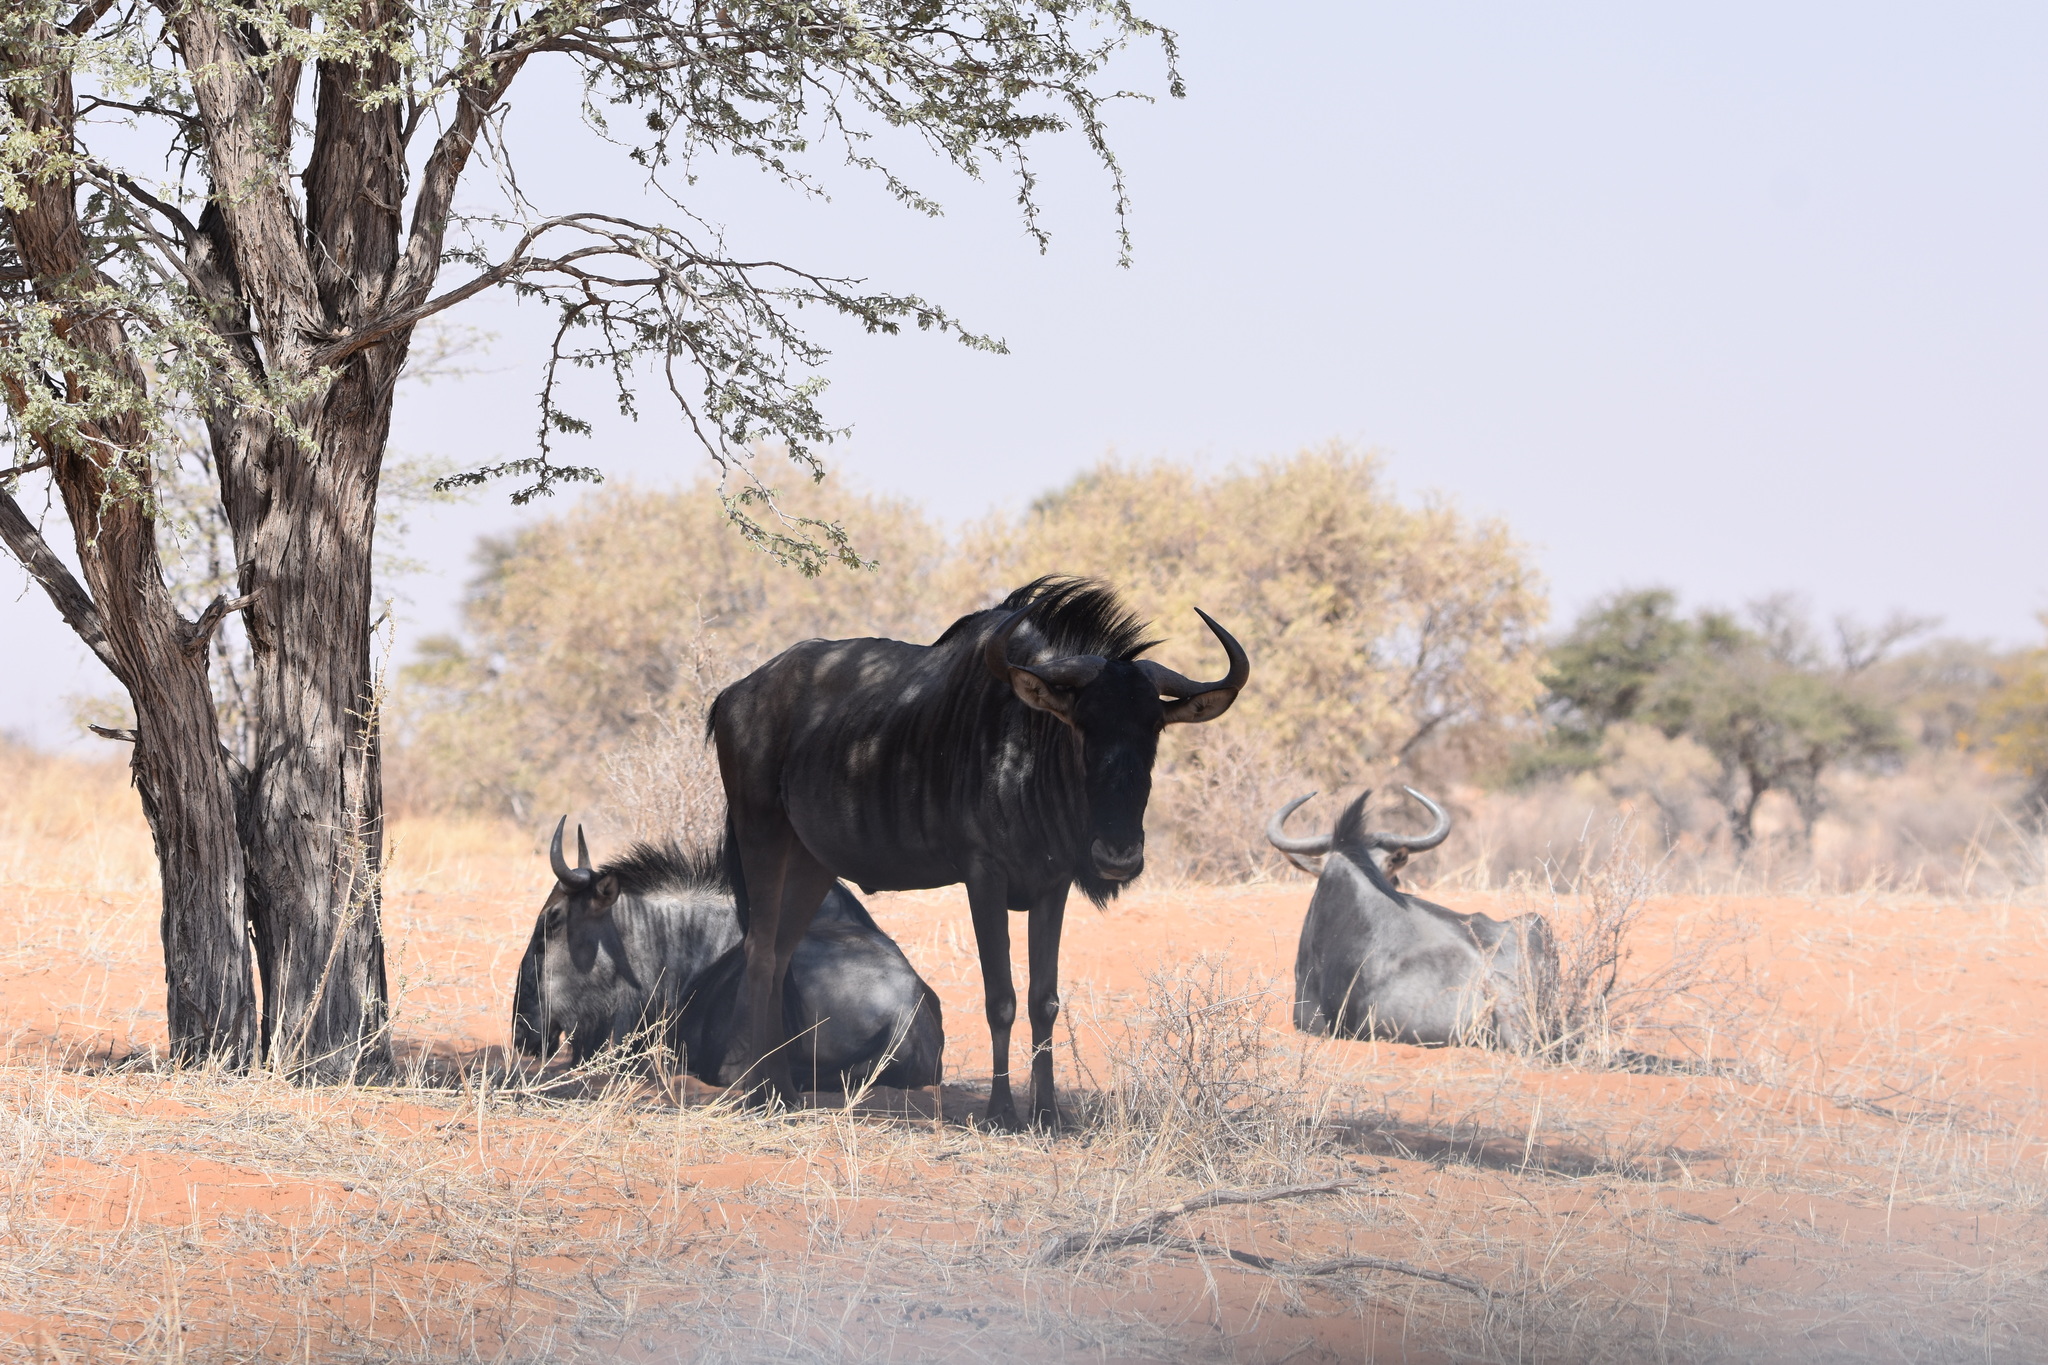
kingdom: Animalia
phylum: Chordata
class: Mammalia
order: Artiodactyla
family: Bovidae
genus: Connochaetes
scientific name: Connochaetes taurinus
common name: Blue wildebeest
